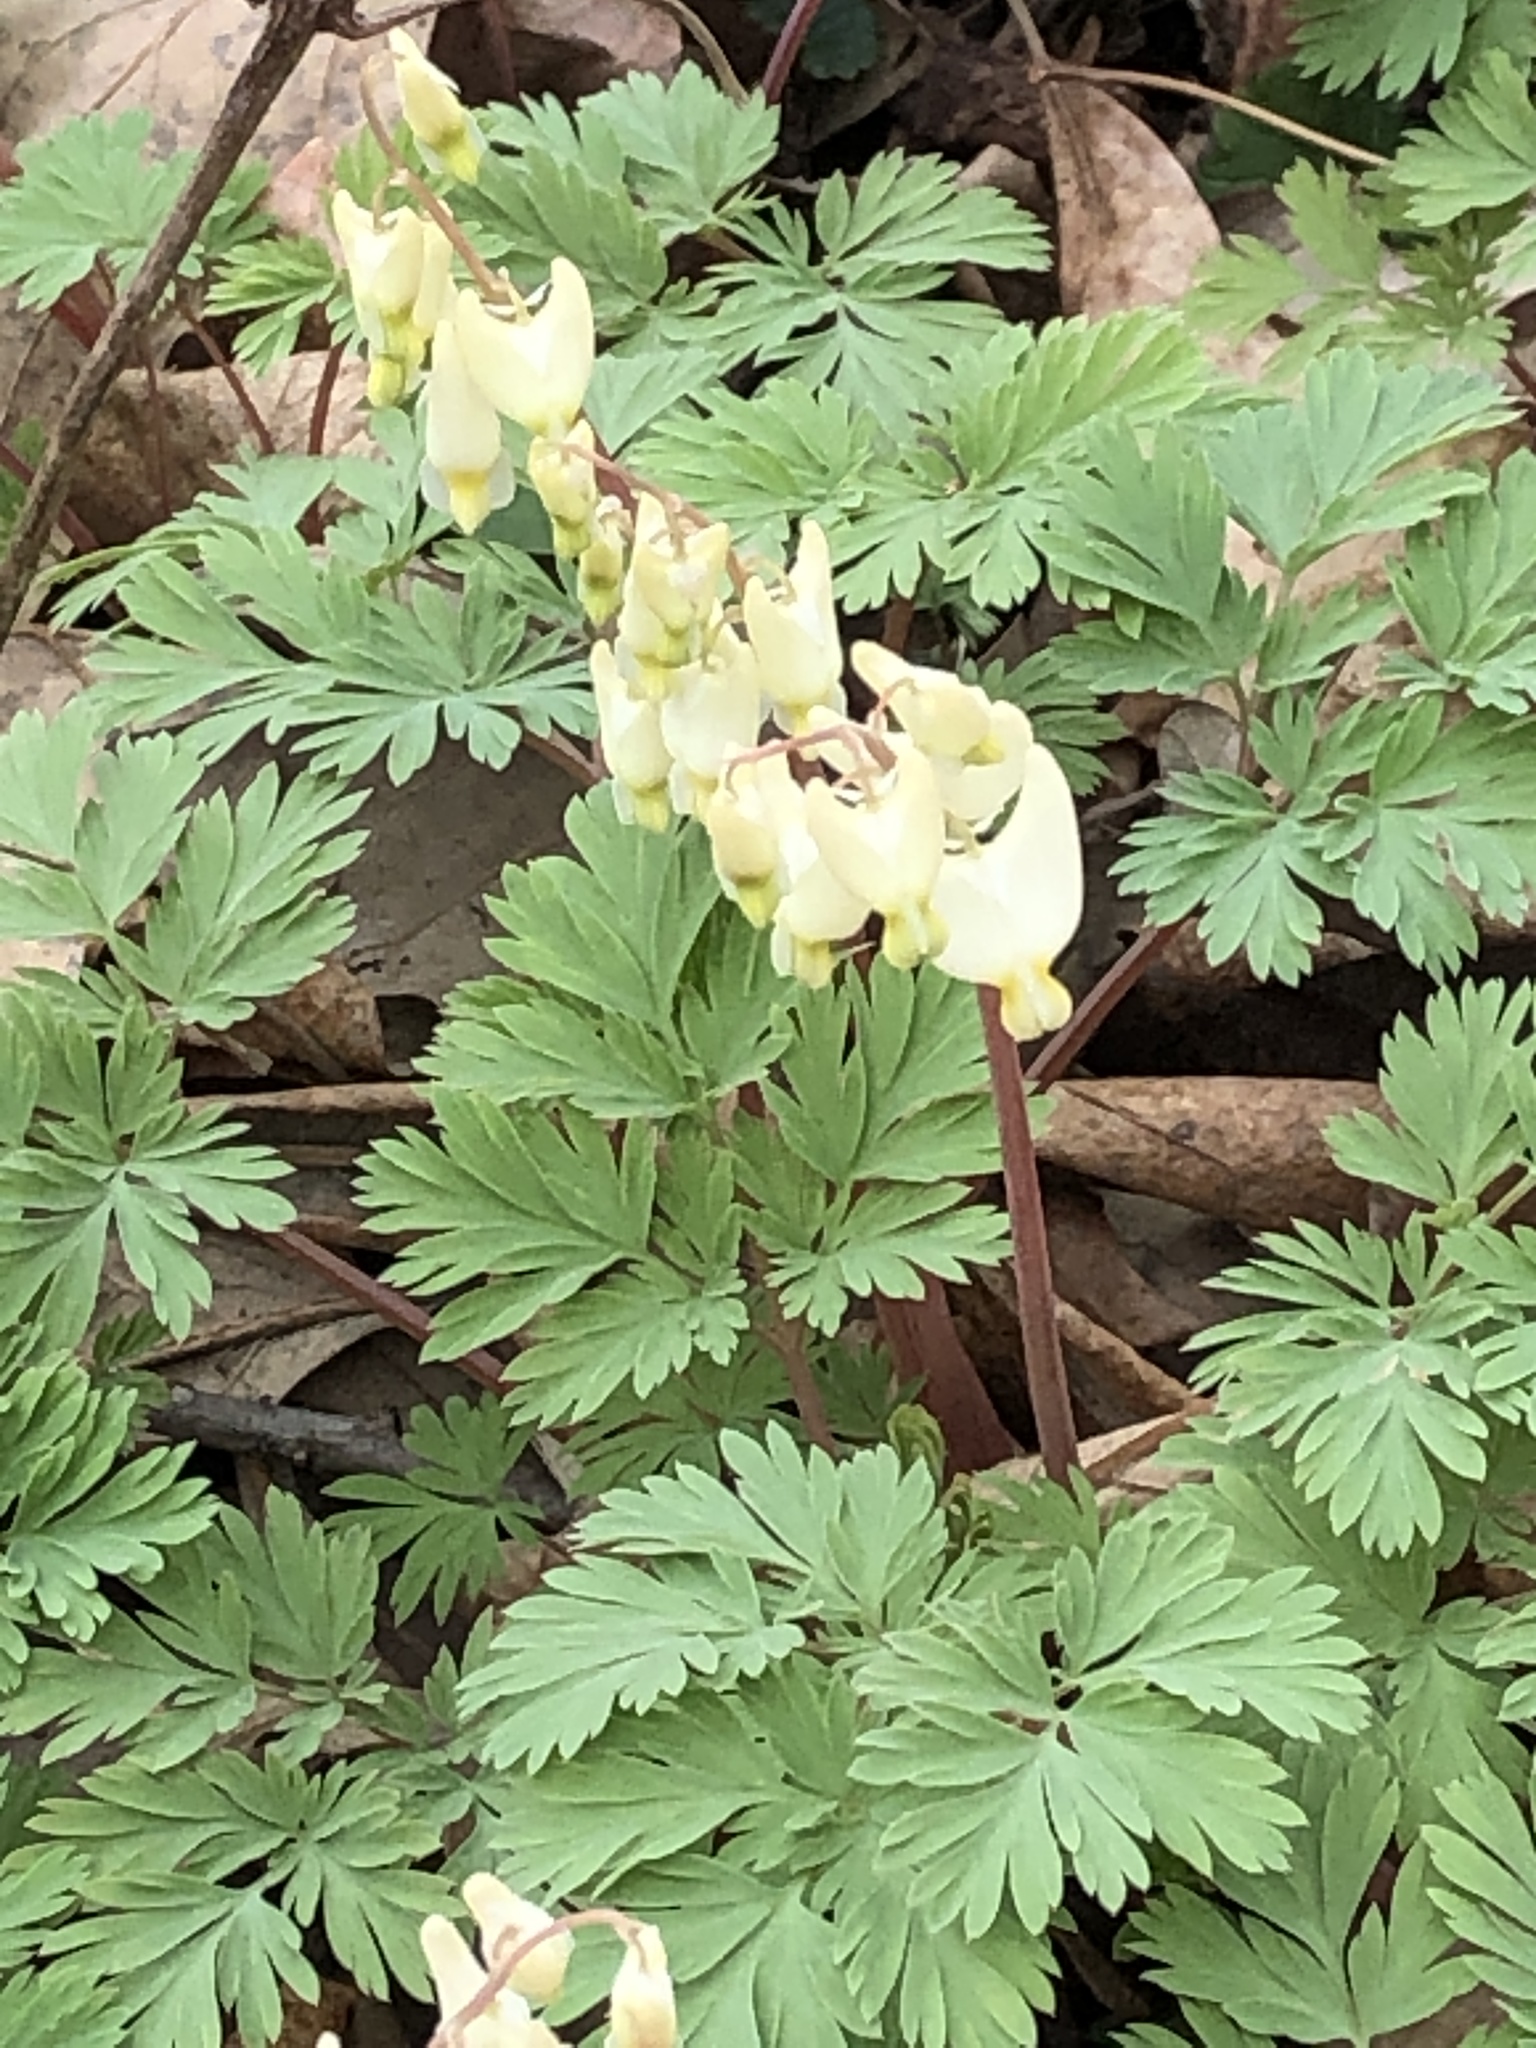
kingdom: Plantae
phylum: Tracheophyta
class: Magnoliopsida
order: Ranunculales
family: Papaveraceae
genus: Dicentra
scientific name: Dicentra cucullaria
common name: Dutchman's breeches
